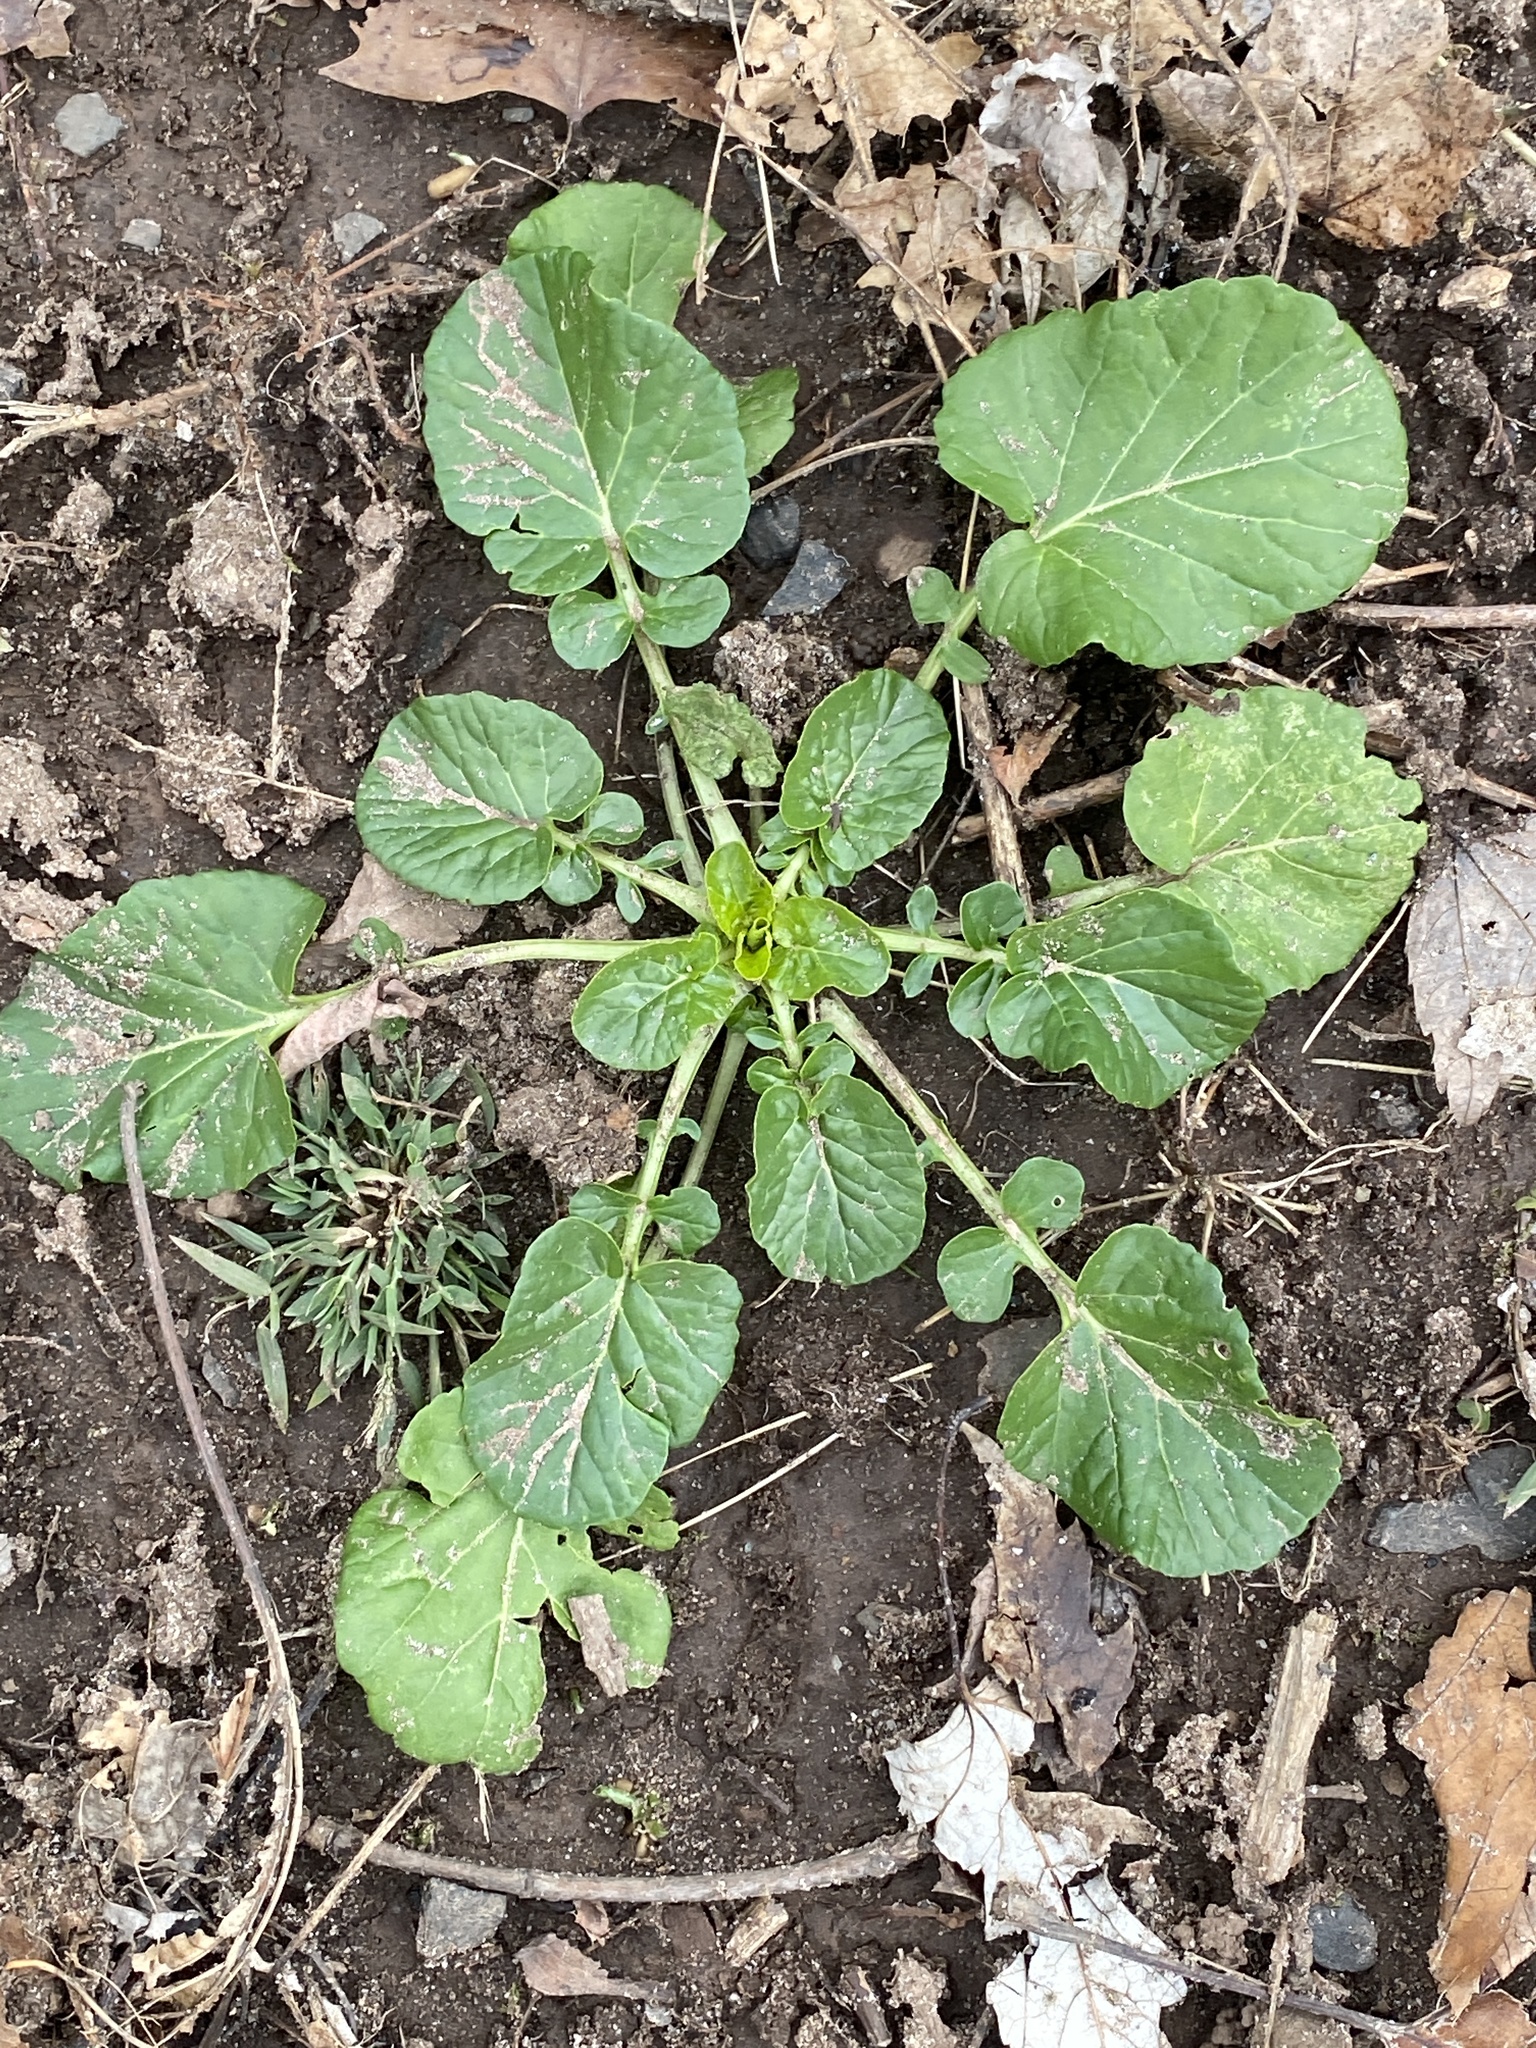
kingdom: Plantae
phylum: Tracheophyta
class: Magnoliopsida
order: Brassicales
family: Brassicaceae
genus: Barbarea
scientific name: Barbarea vulgaris
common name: Cressy-greens
